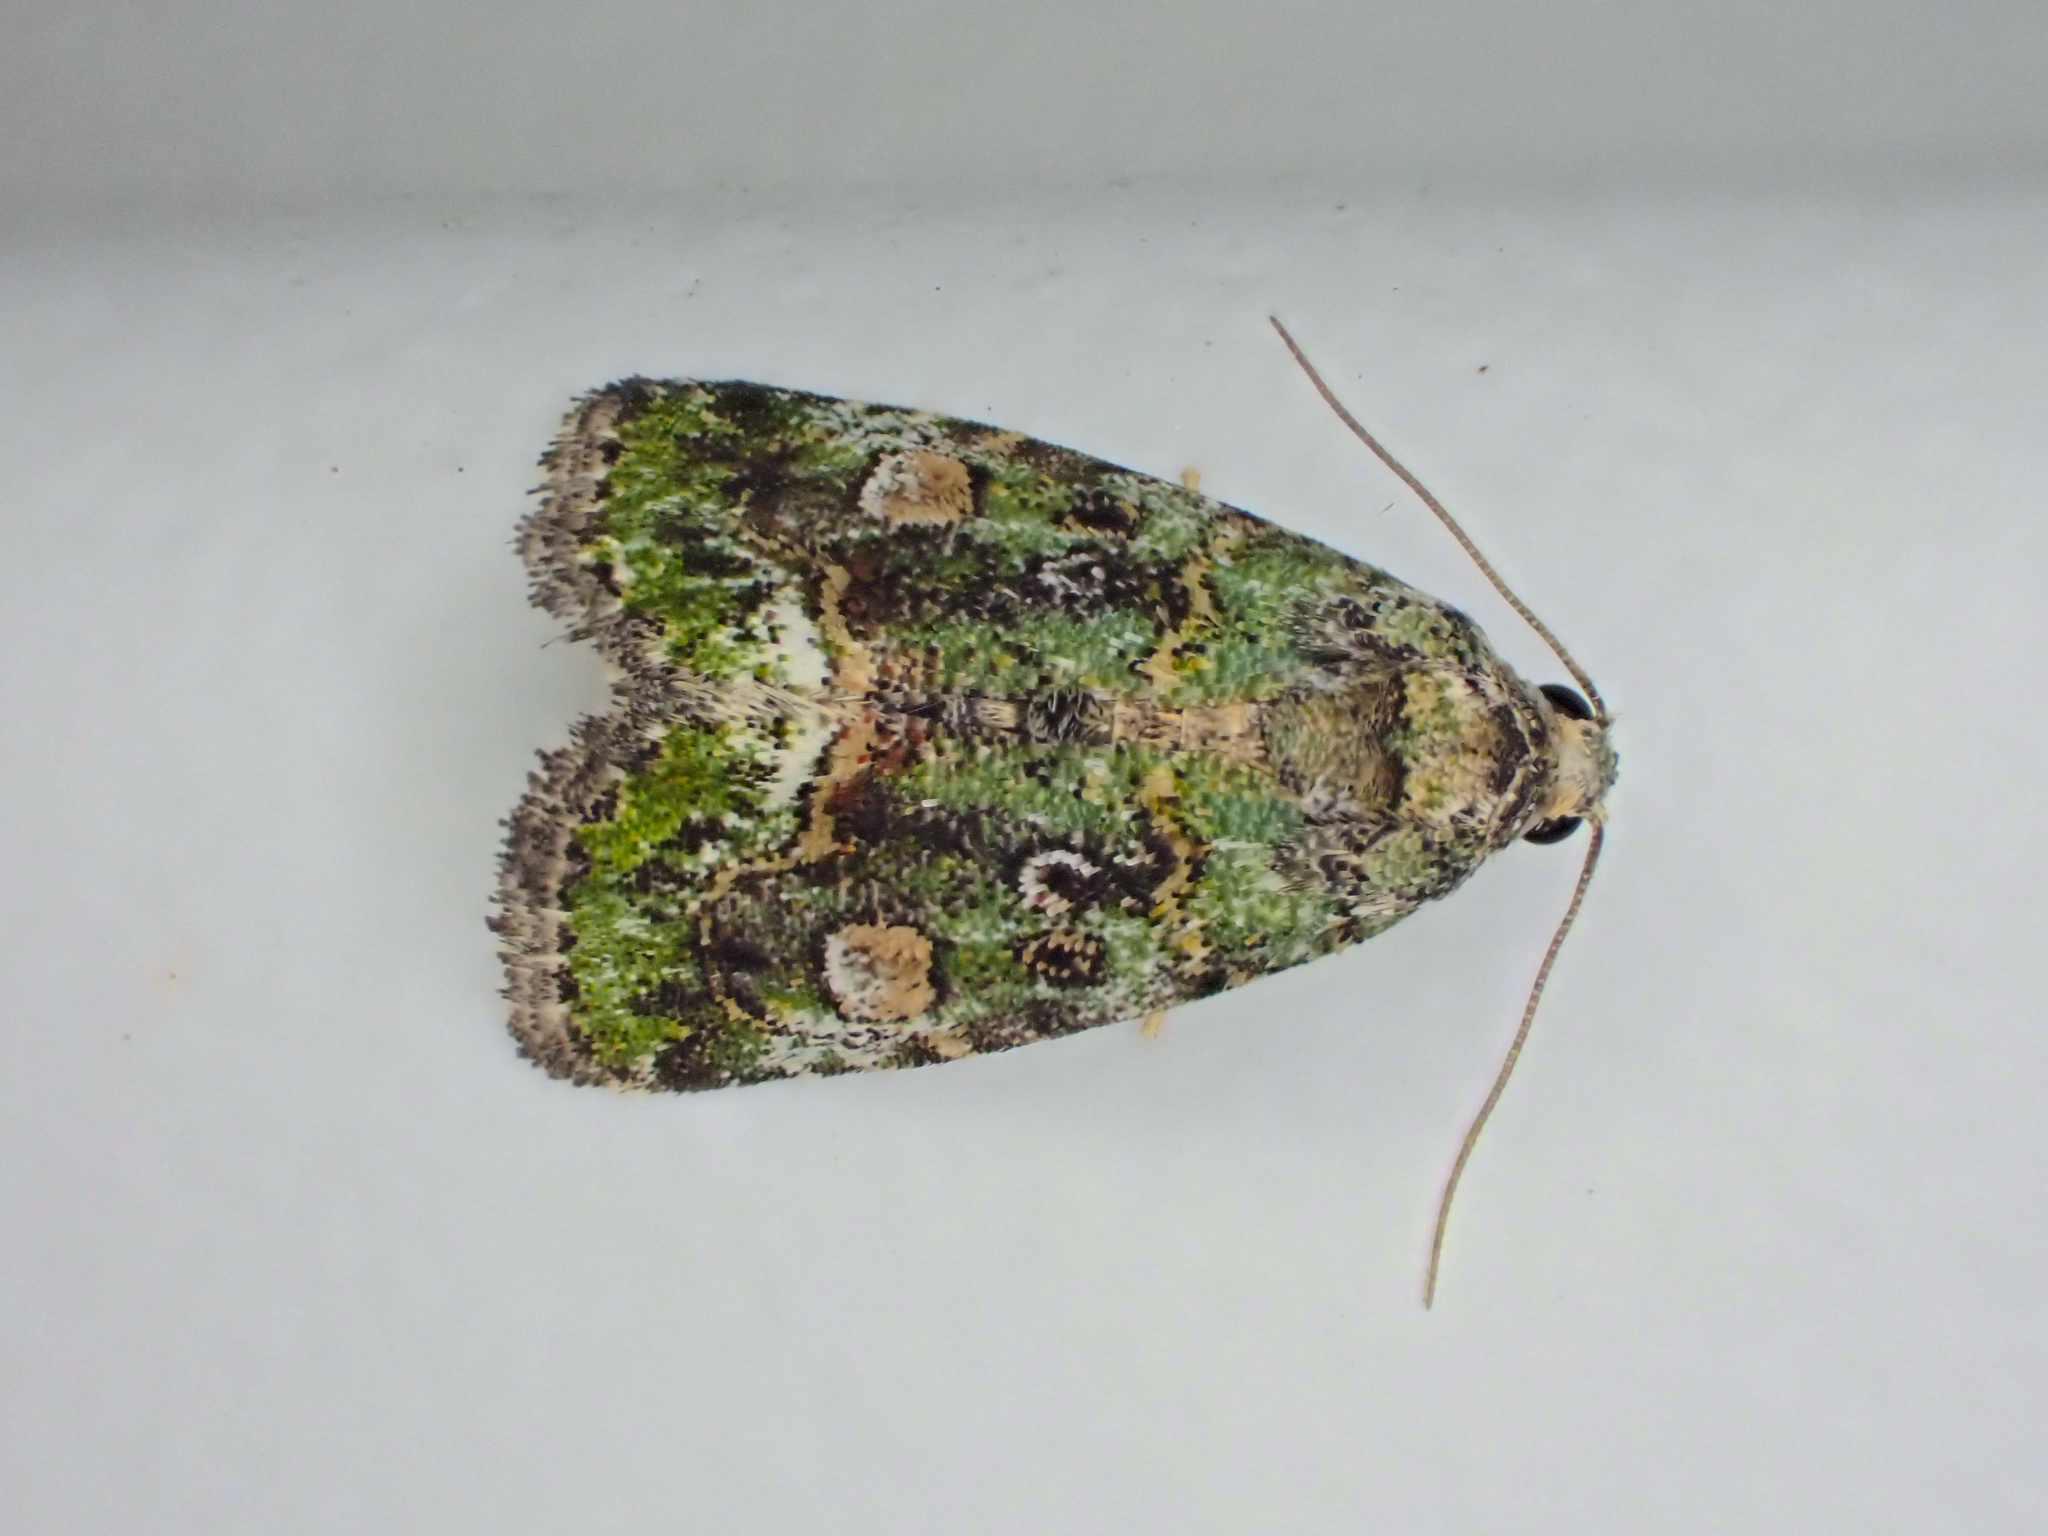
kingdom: Animalia
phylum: Arthropoda
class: Insecta
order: Lepidoptera
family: Noctuidae
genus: Lithacodia
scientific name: Lithacodia musta
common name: Small mossy glyph
